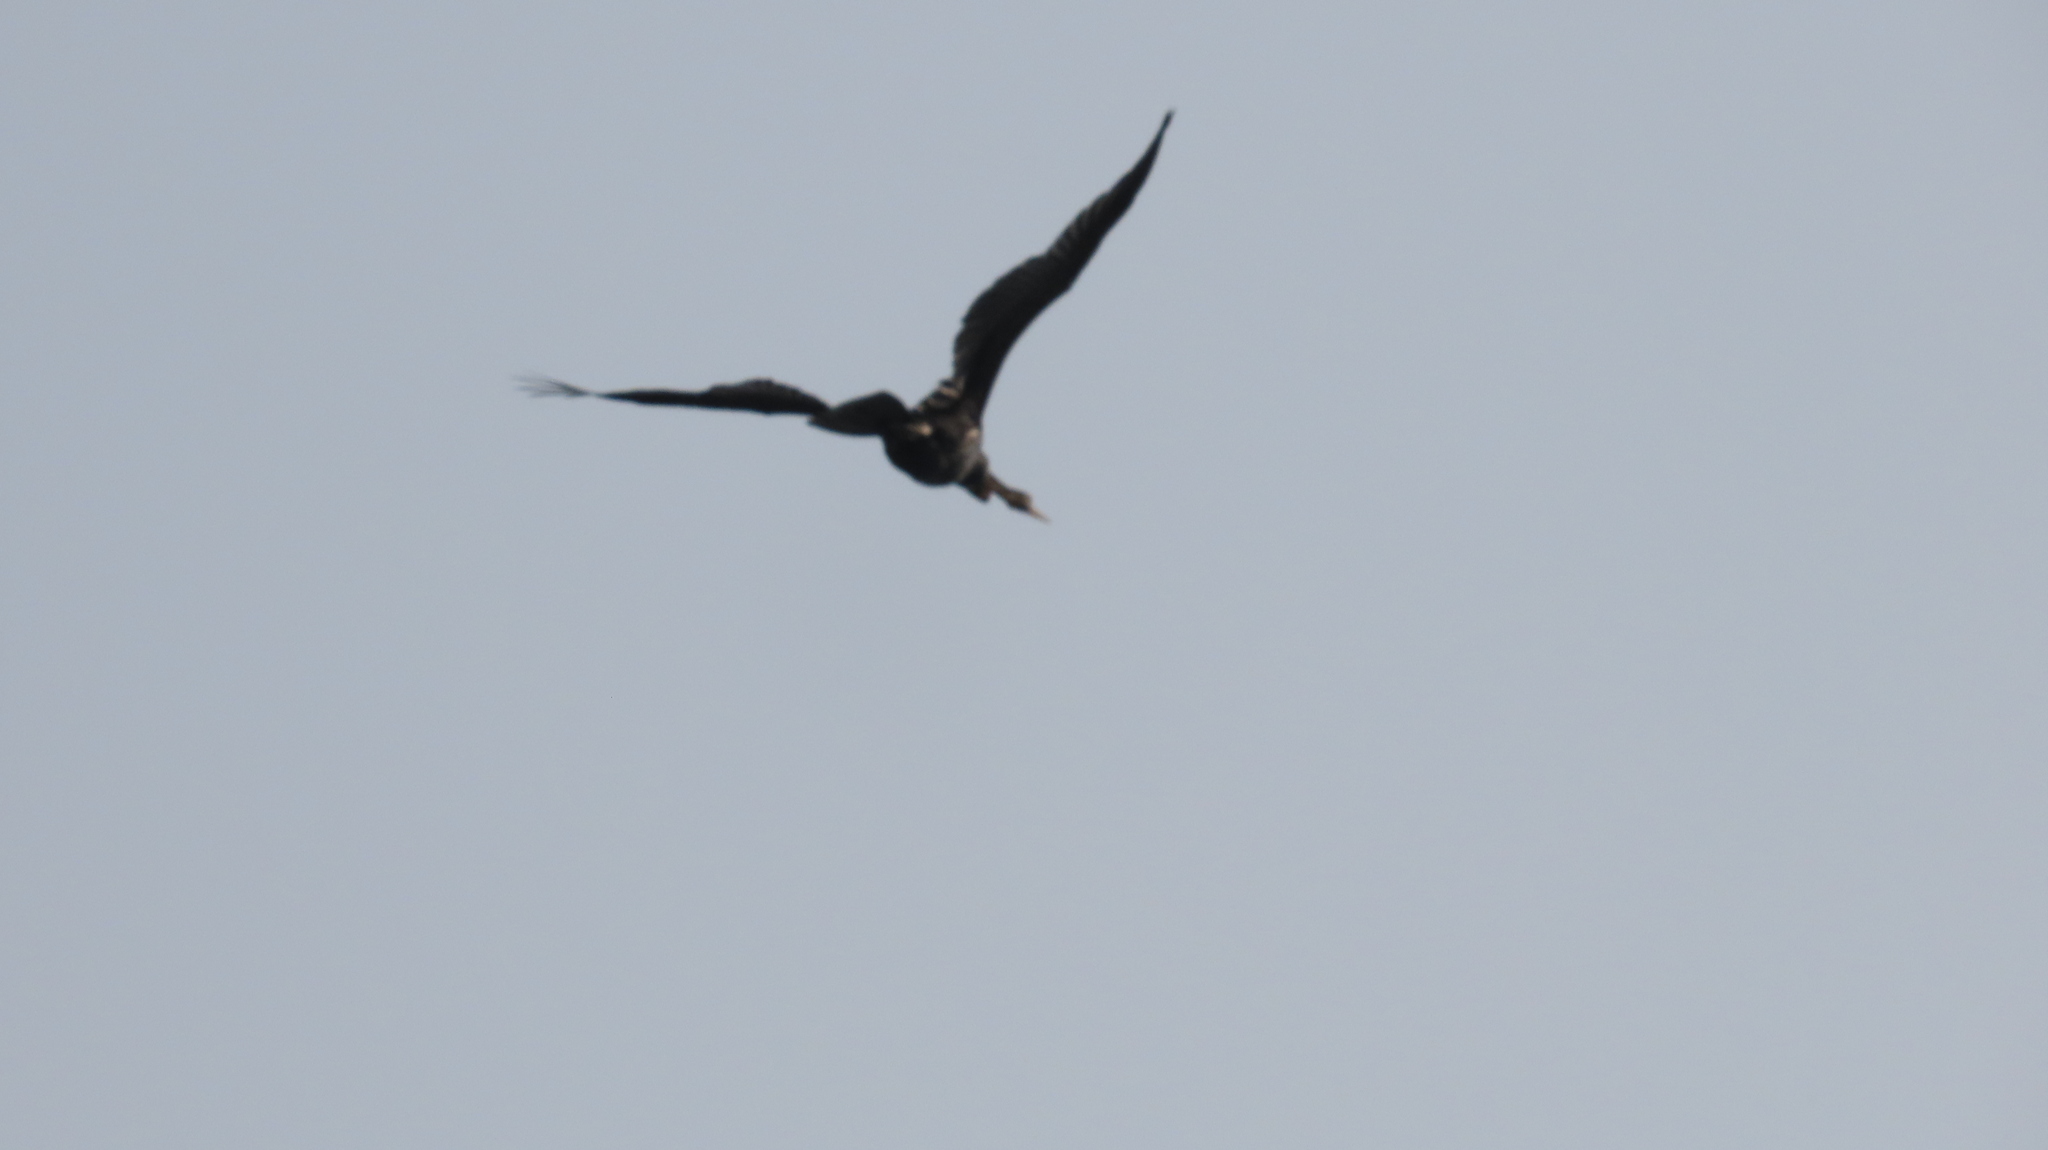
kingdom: Animalia
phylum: Chordata
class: Aves
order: Suliformes
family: Anhingidae
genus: Anhinga
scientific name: Anhinga melanogaster
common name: Oriental darter
